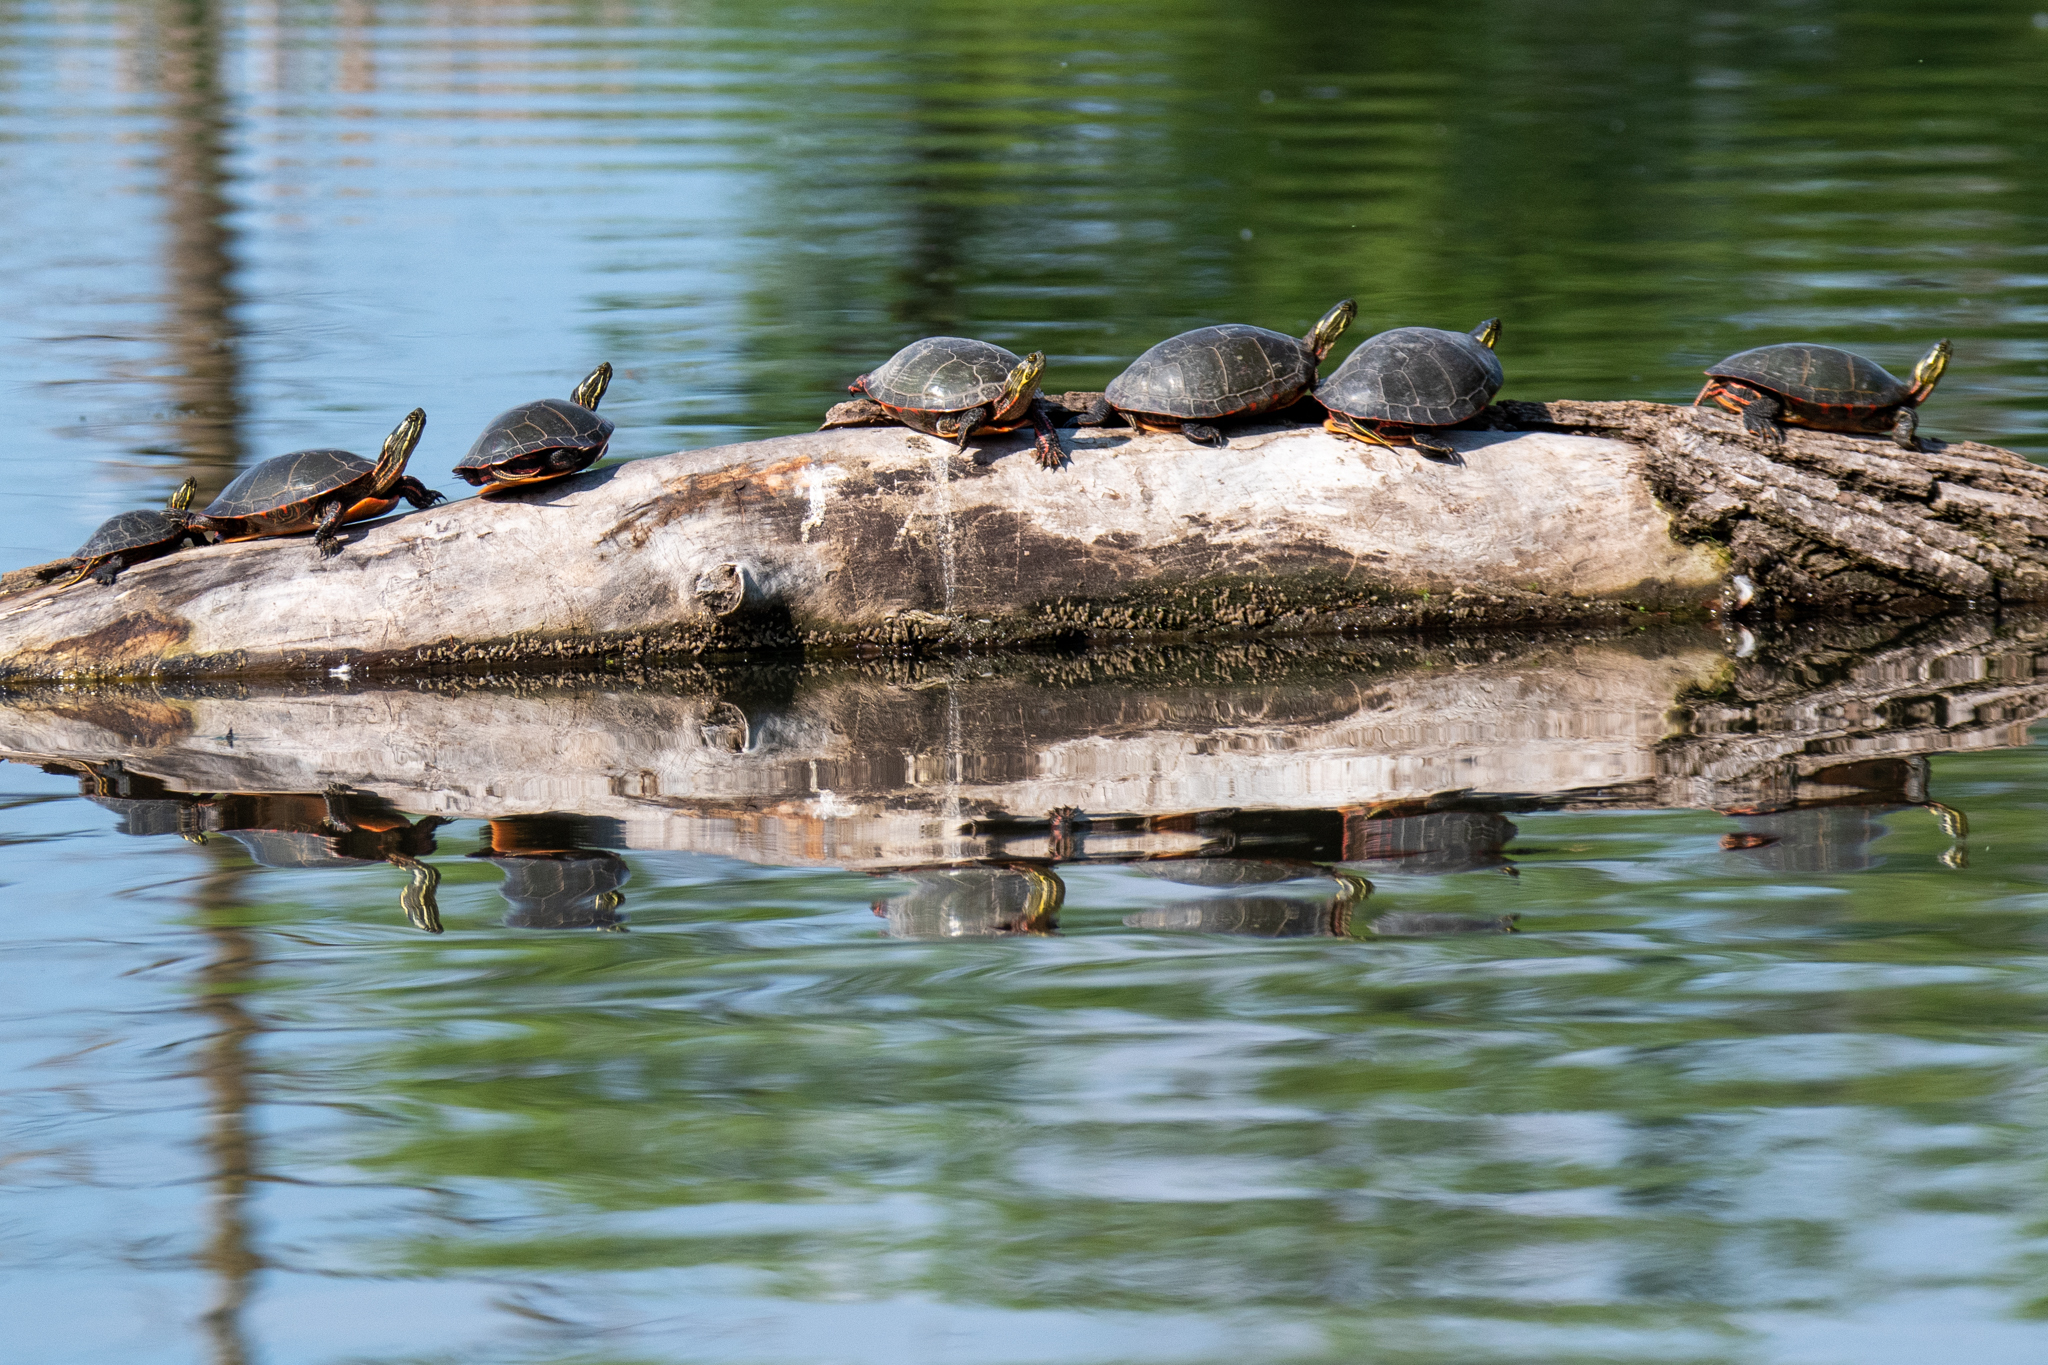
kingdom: Animalia
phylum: Chordata
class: Testudines
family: Emydidae
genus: Chrysemys
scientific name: Chrysemys picta
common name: Painted turtle
